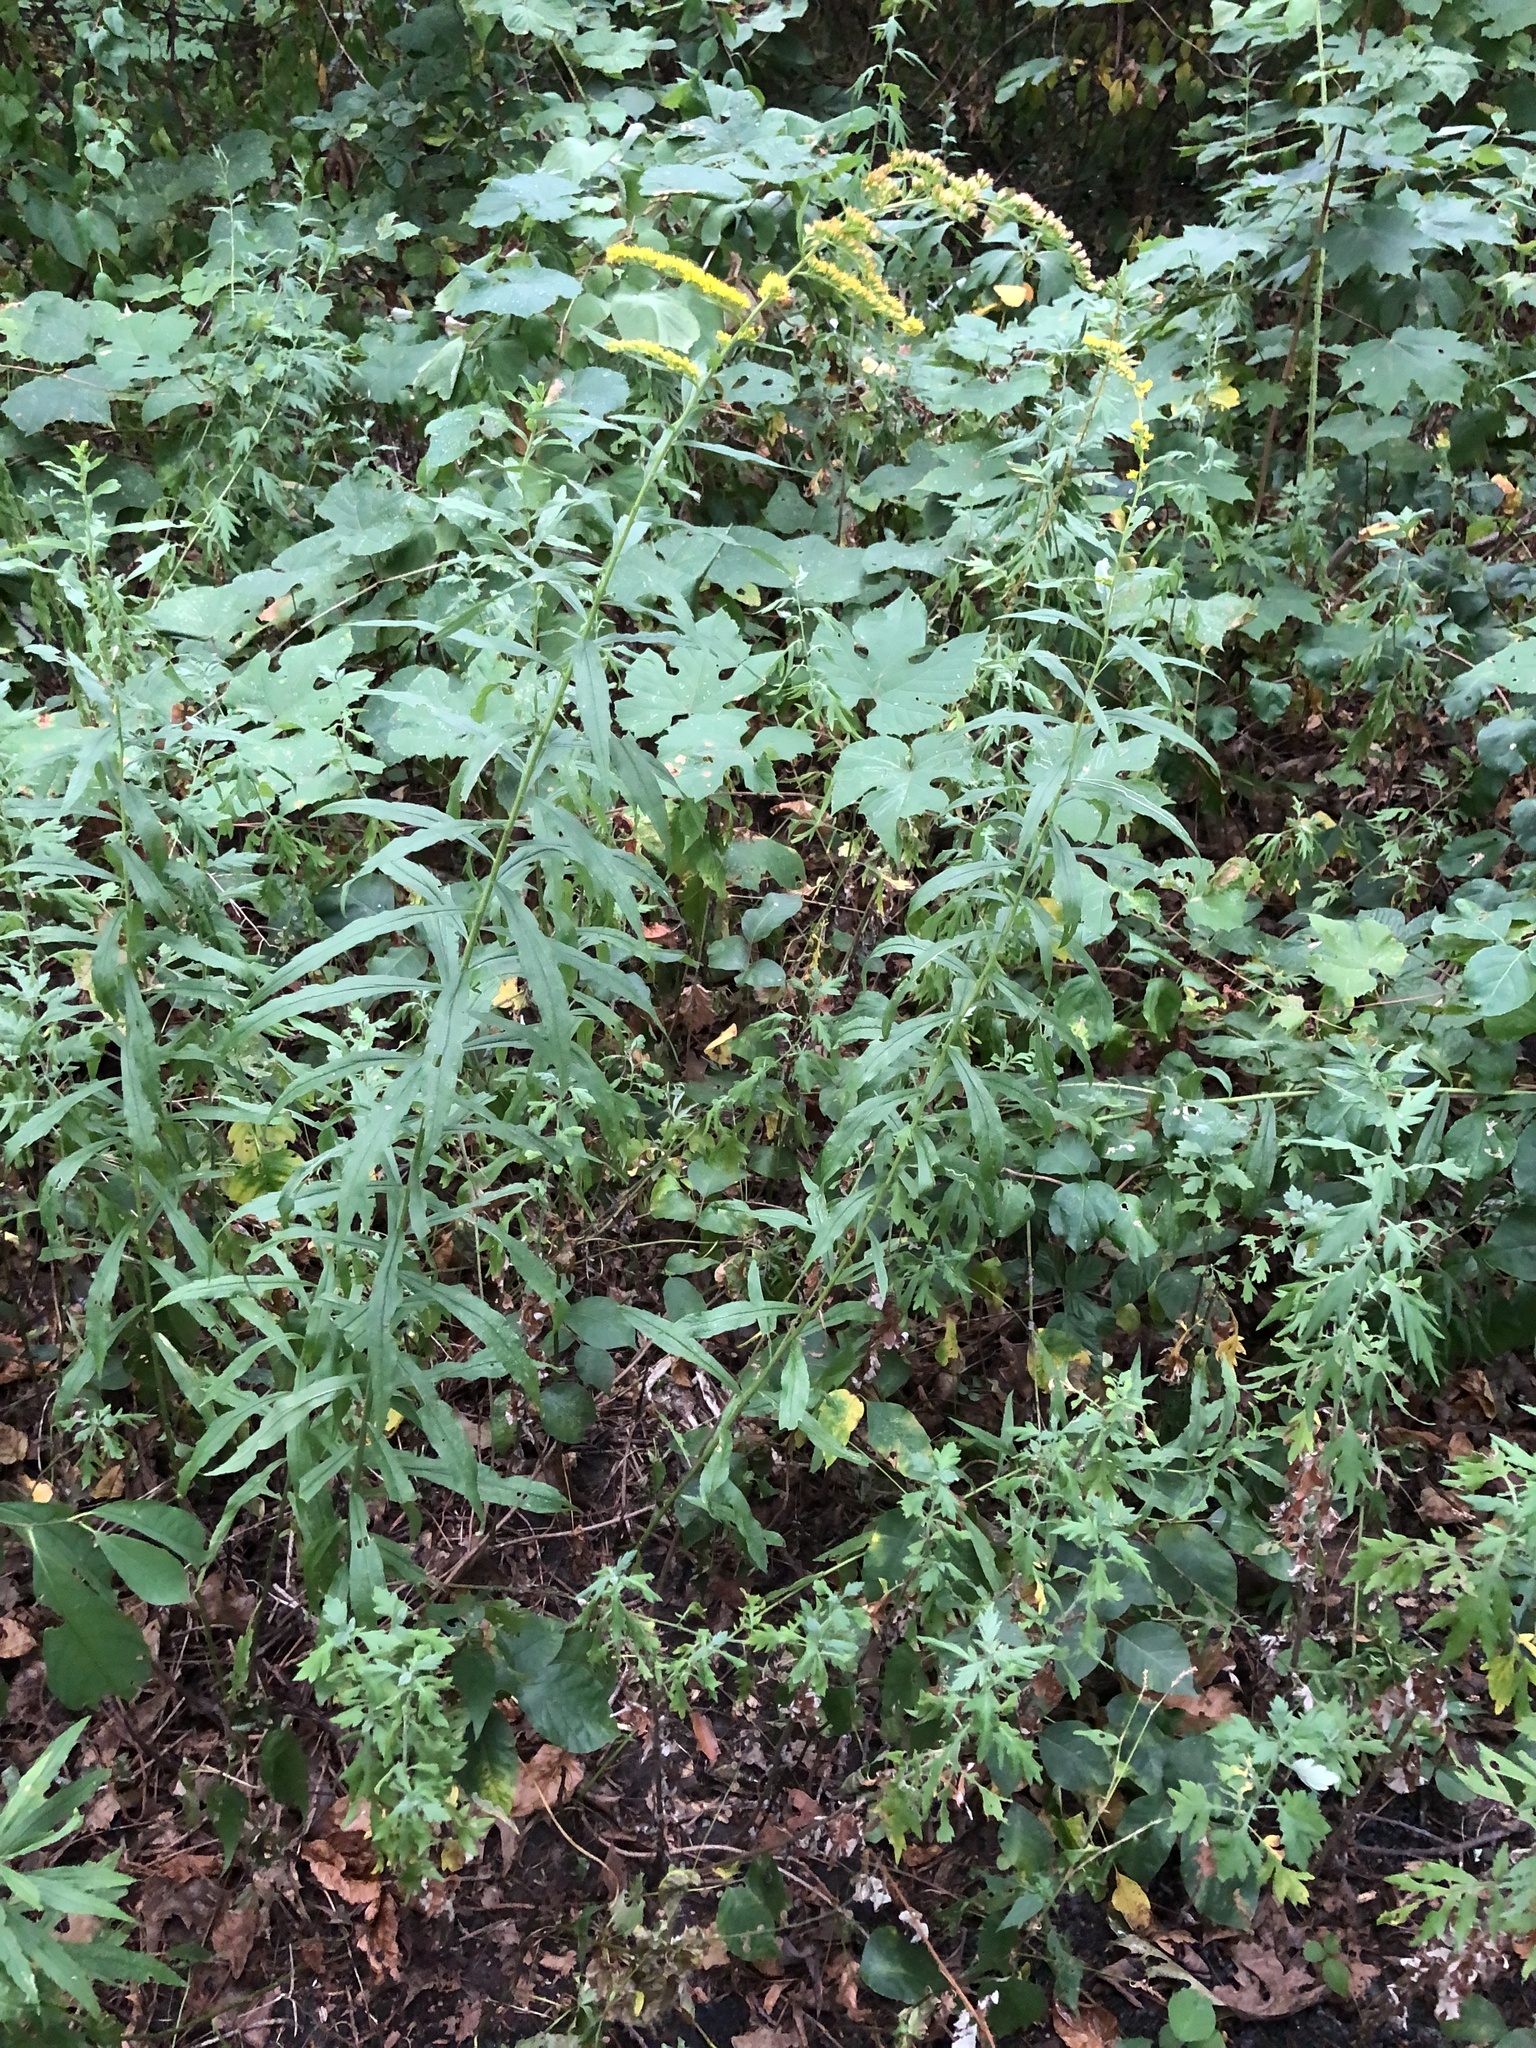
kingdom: Plantae
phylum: Tracheophyta
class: Magnoliopsida
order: Asterales
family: Asteraceae
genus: Solidago
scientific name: Solidago juncea
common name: Early goldenrod
